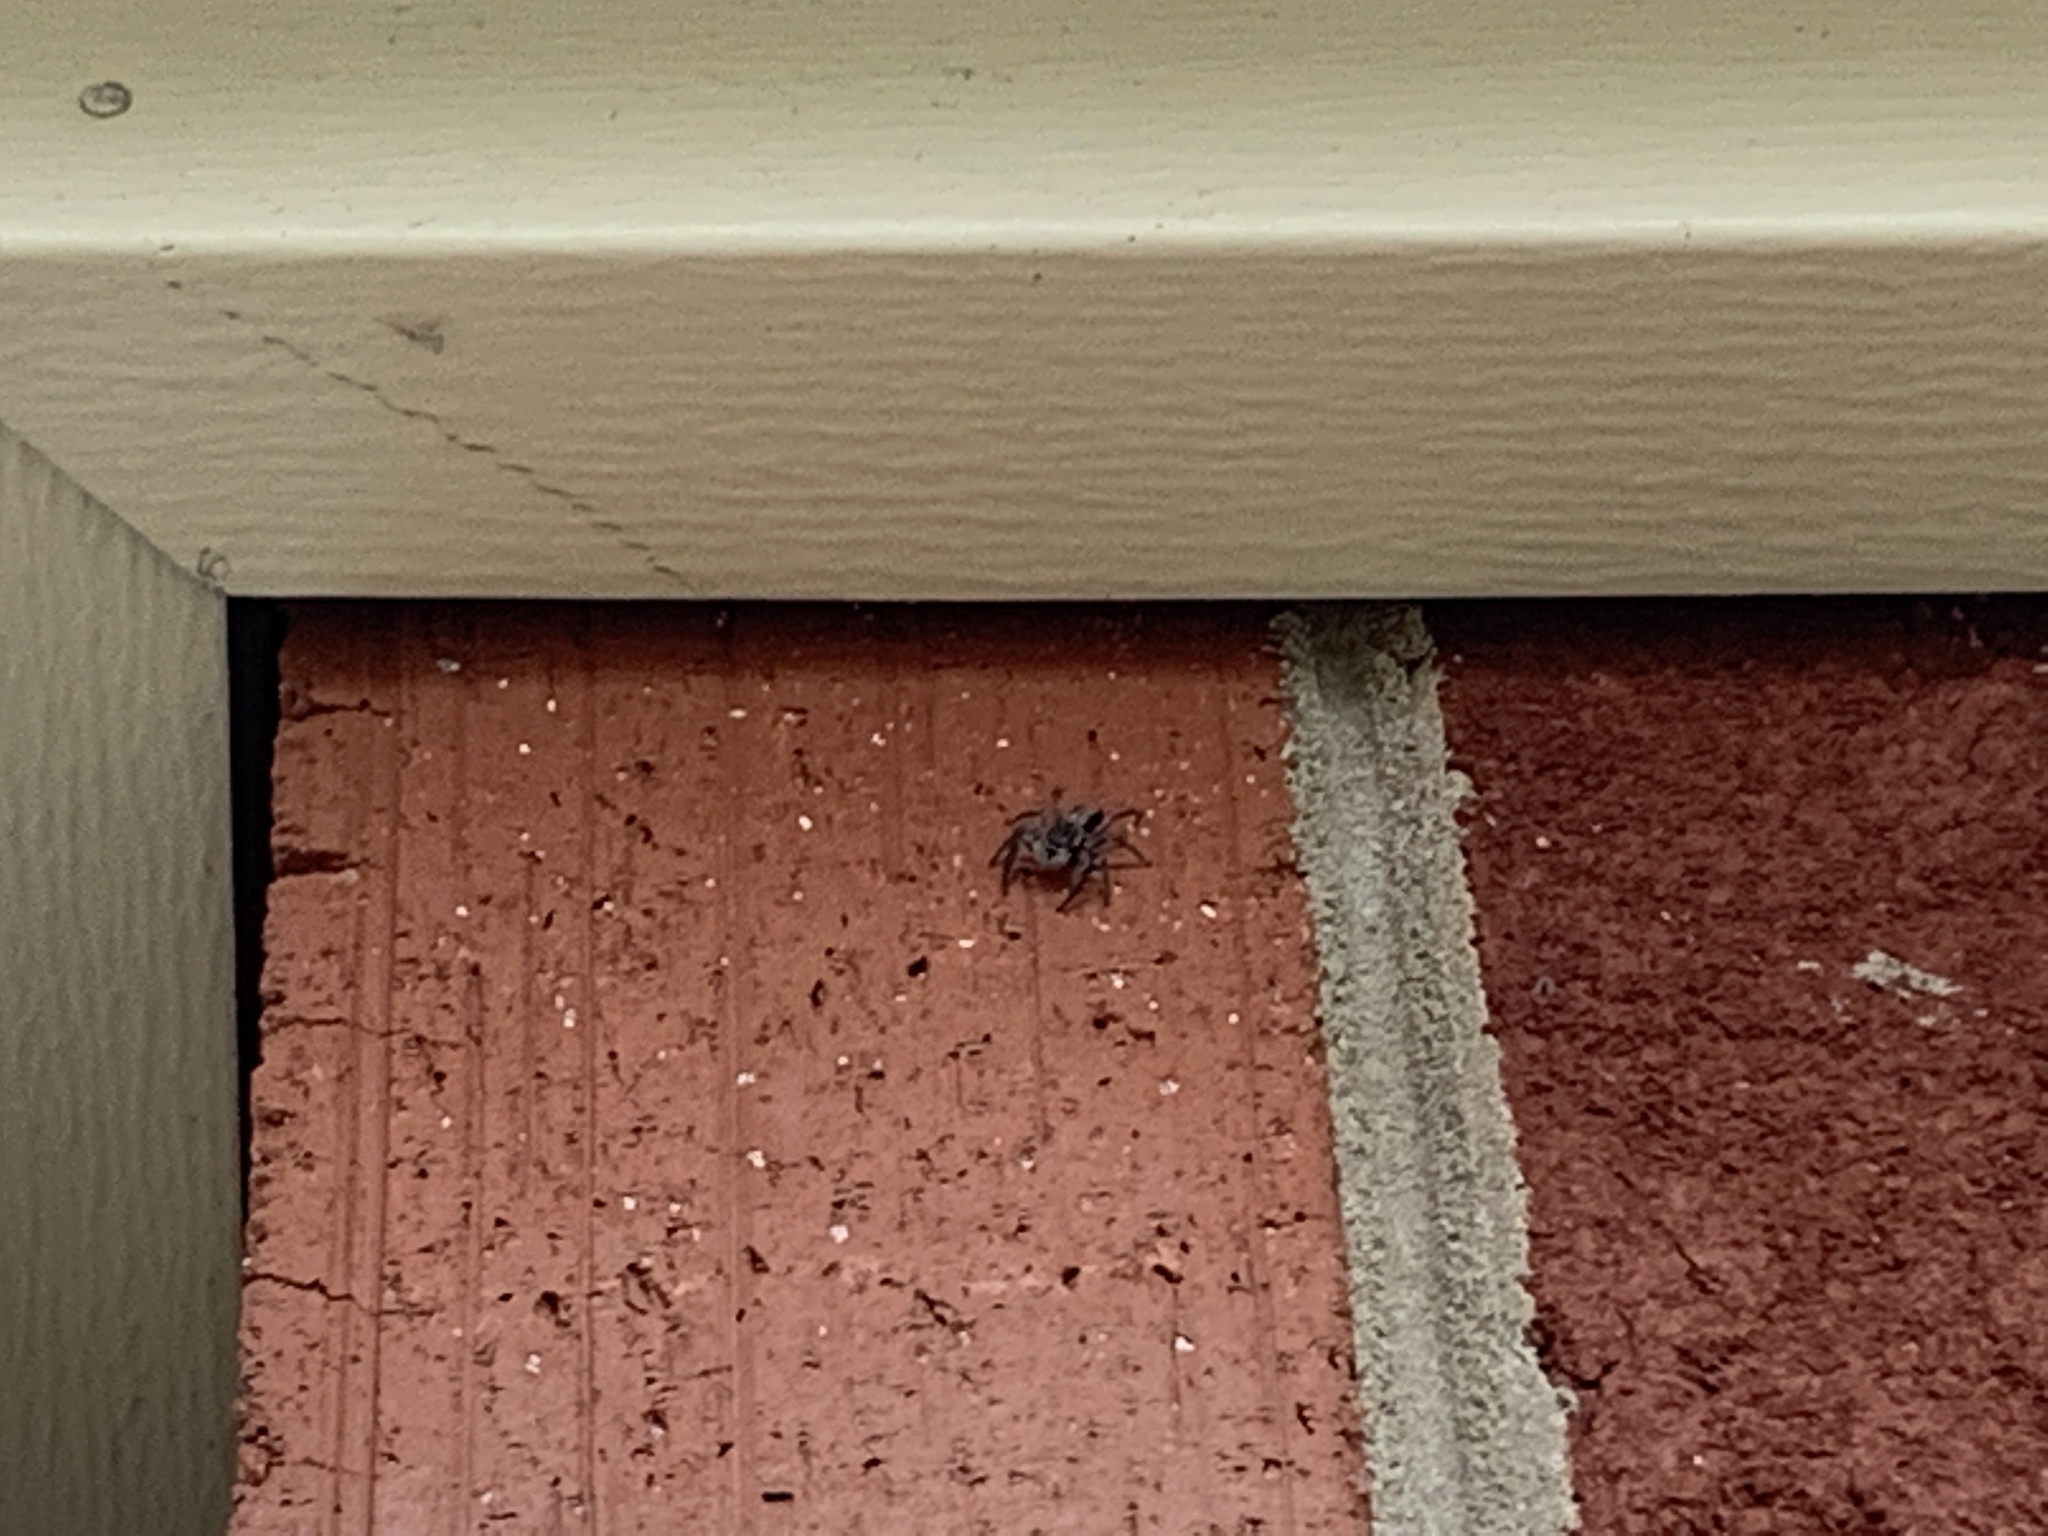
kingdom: Animalia
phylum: Arthropoda
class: Arachnida
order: Araneae
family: Salticidae
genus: Platycryptus
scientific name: Platycryptus undatus
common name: Tan jumping spider
